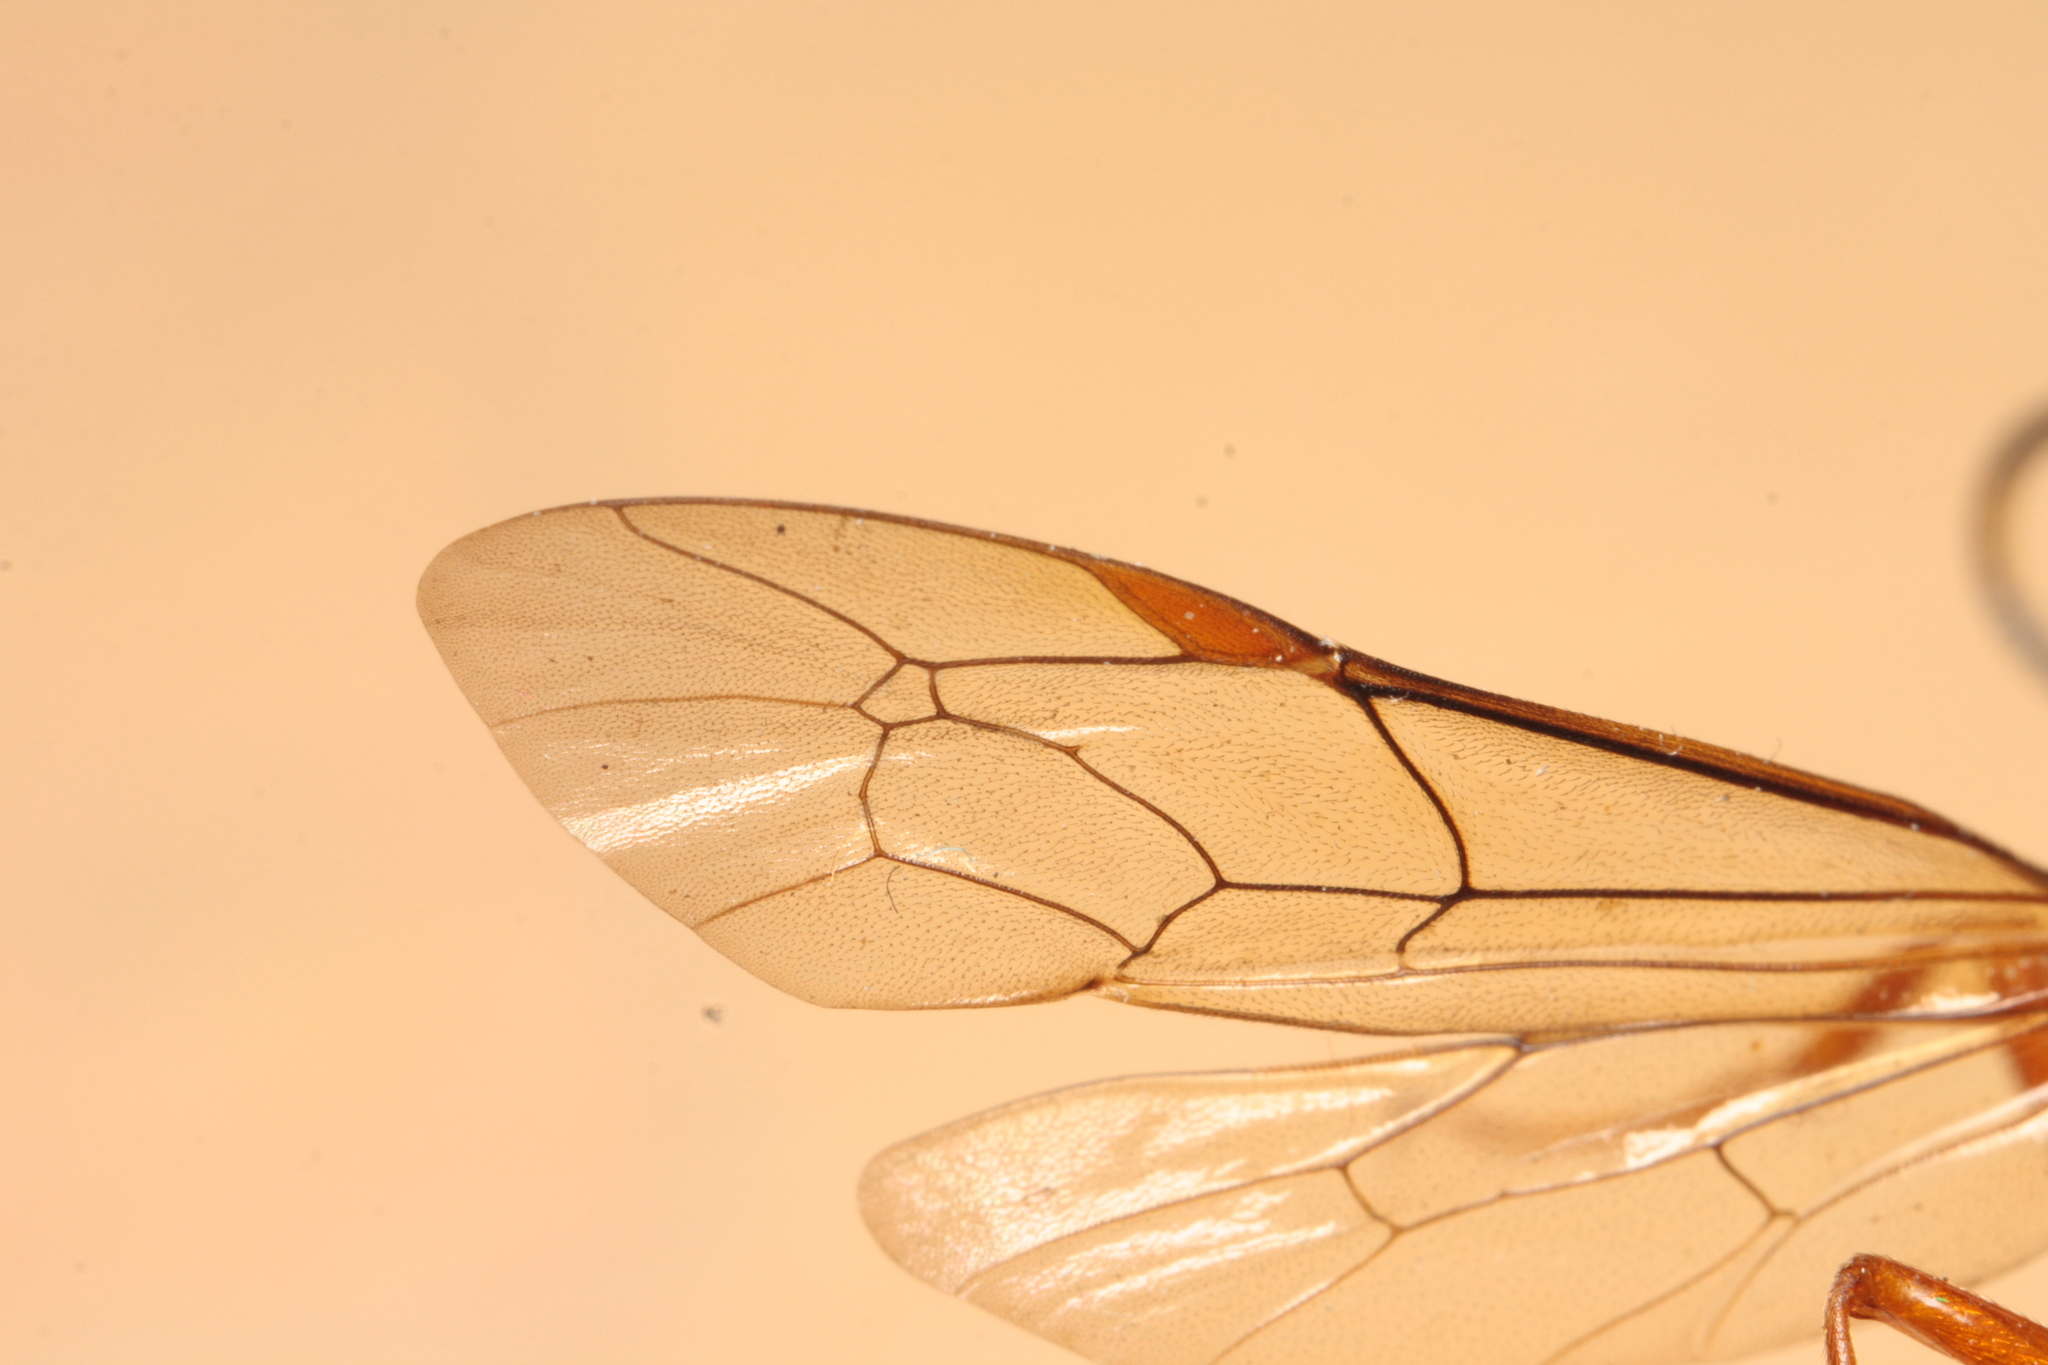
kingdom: Animalia
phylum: Arthropoda
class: Insecta
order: Hymenoptera
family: Ichneumonidae
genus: Diphyus
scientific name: Diphyus quadripunctorius
